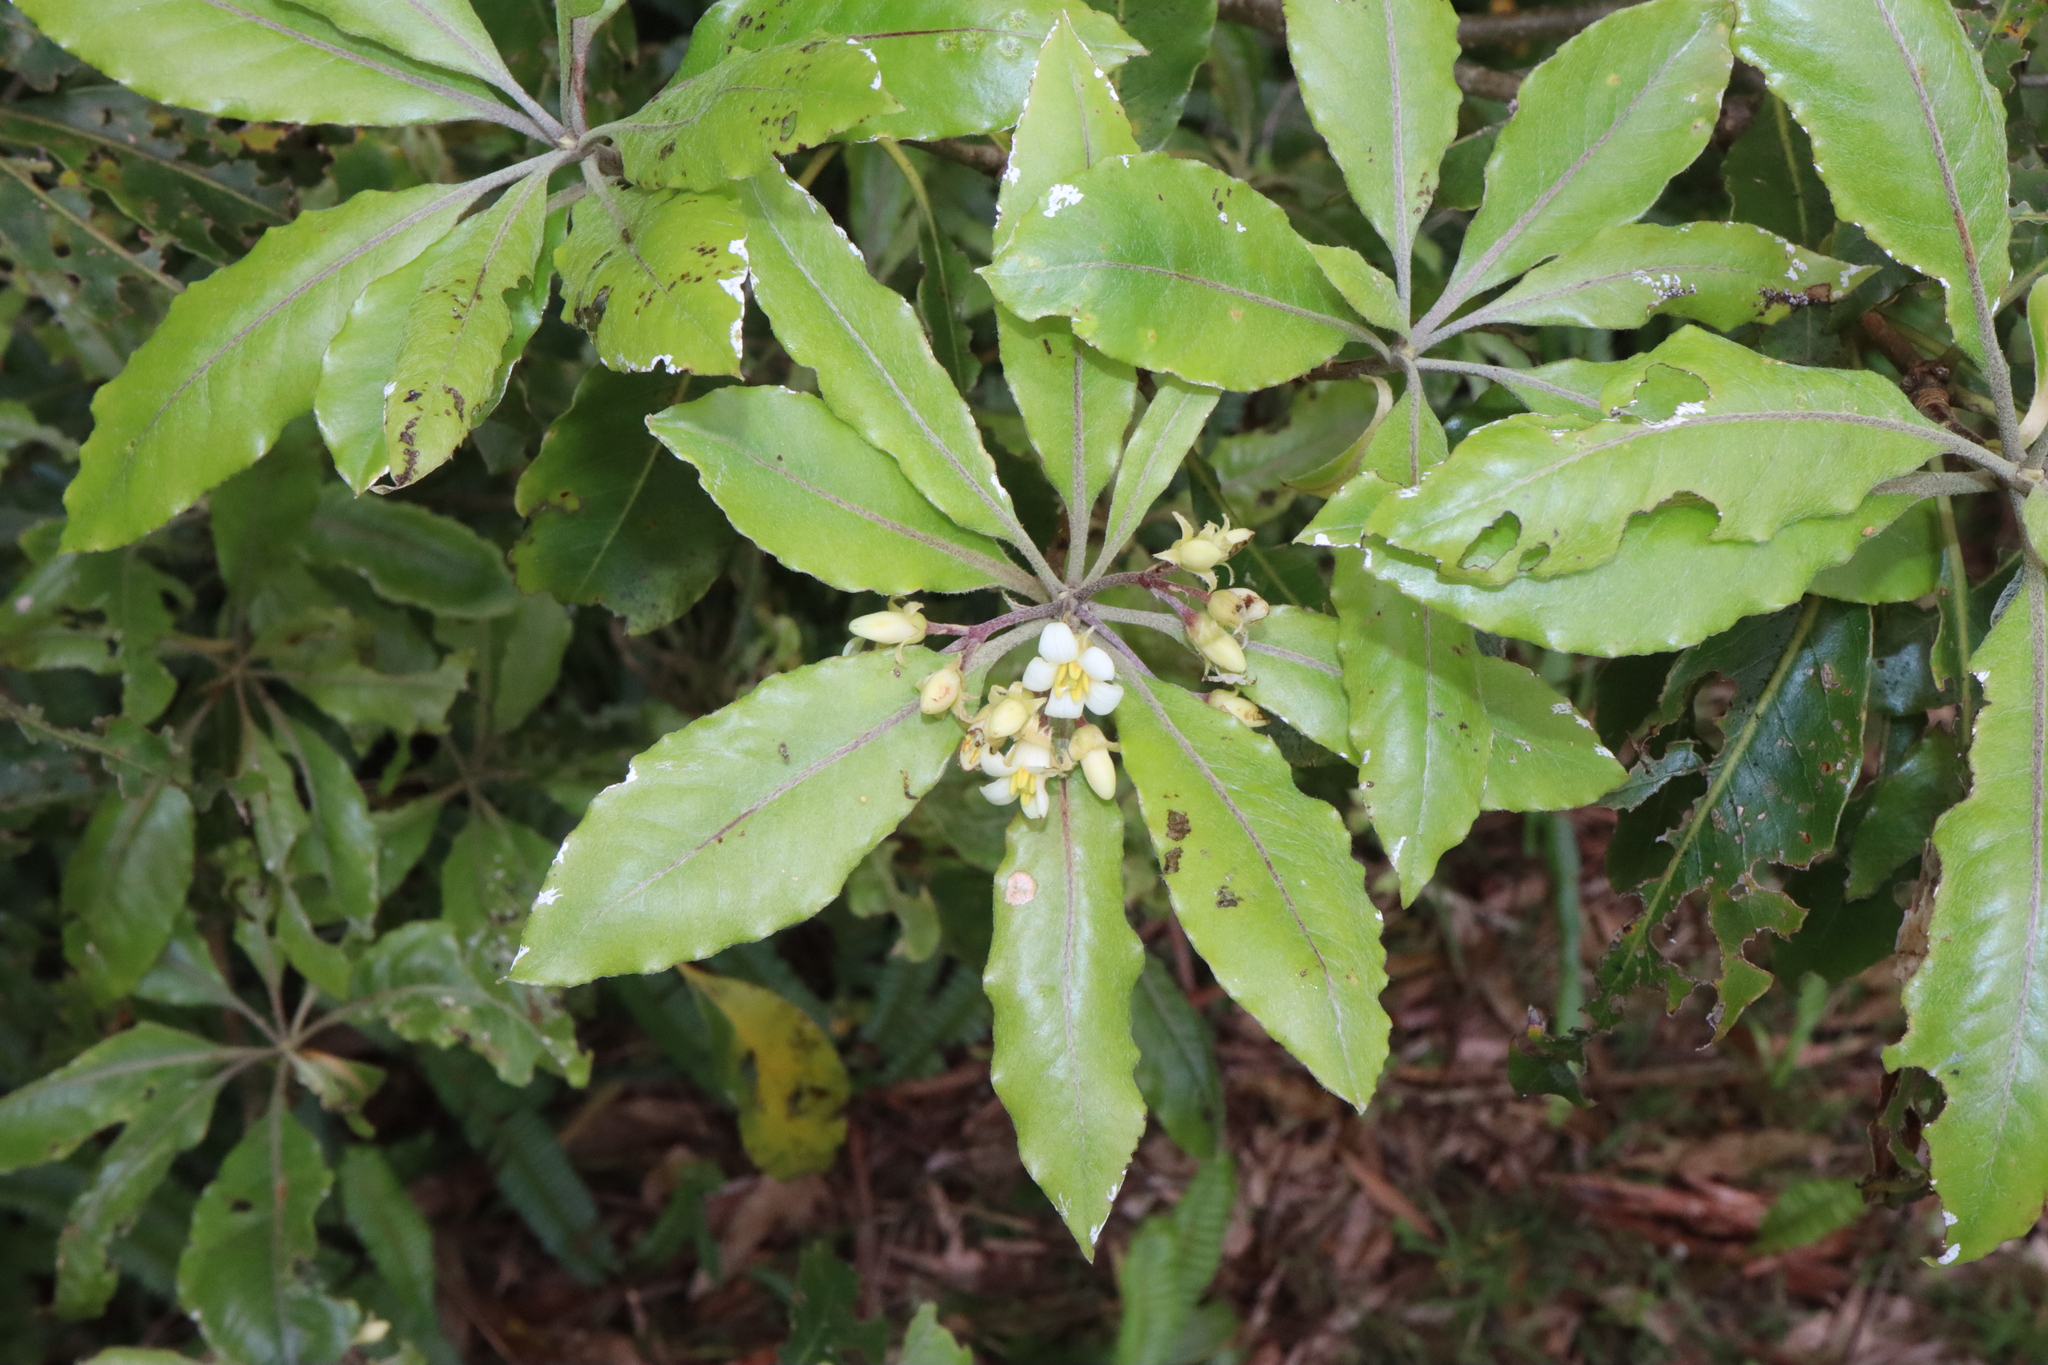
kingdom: Plantae
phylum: Tracheophyta
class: Magnoliopsida
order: Apiales
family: Pittosporaceae
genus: Pittosporum
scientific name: Pittosporum undulatum
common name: Australian cheesewood
